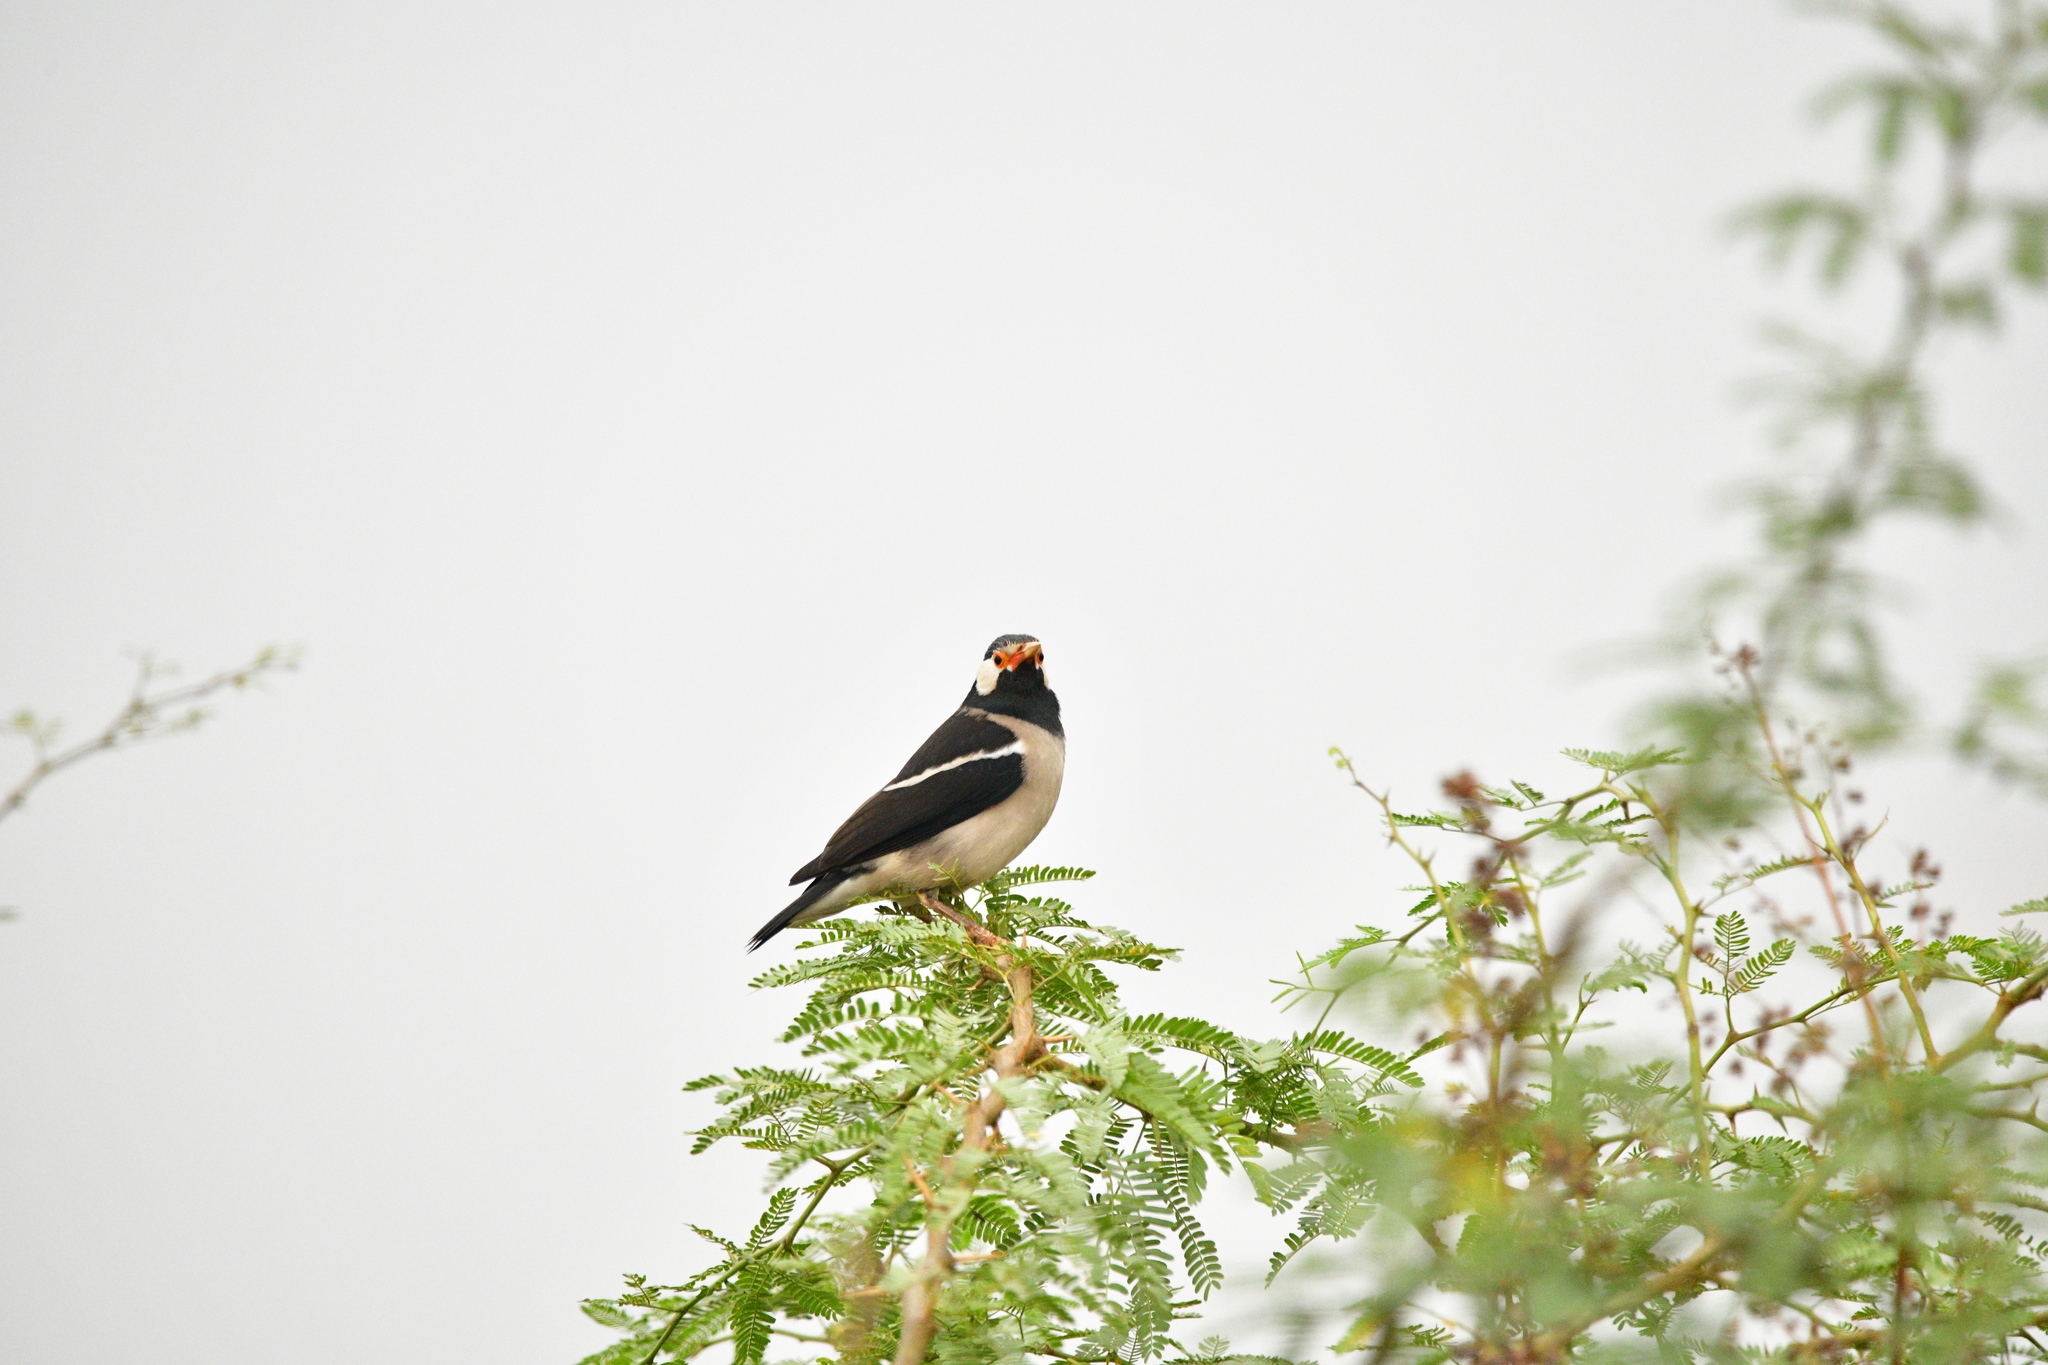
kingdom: Animalia
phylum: Chordata
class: Aves
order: Passeriformes
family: Sturnidae
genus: Gracupica
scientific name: Gracupica contra
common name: Pied myna
